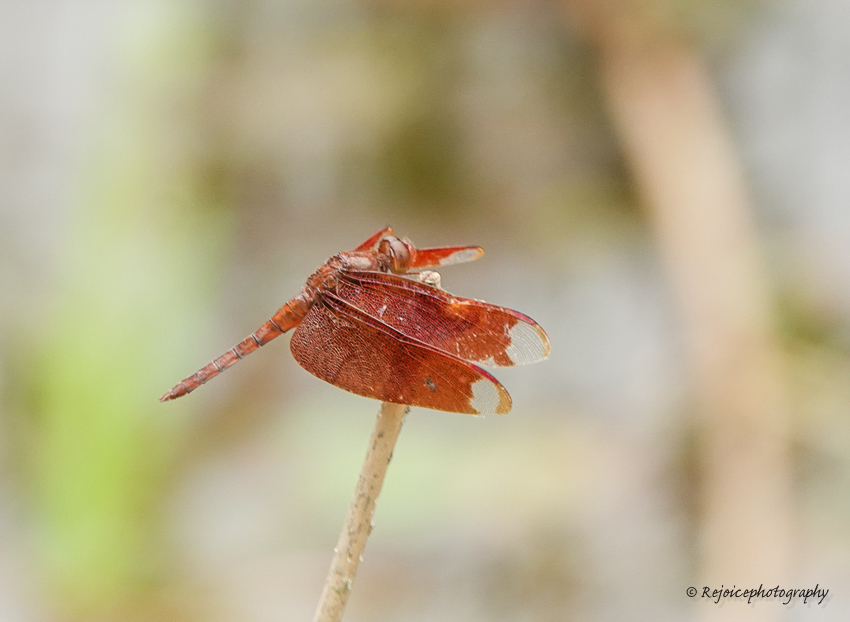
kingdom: Animalia
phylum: Arthropoda
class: Insecta
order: Odonata
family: Libellulidae
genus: Neurothemis
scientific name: Neurothemis fulvia
